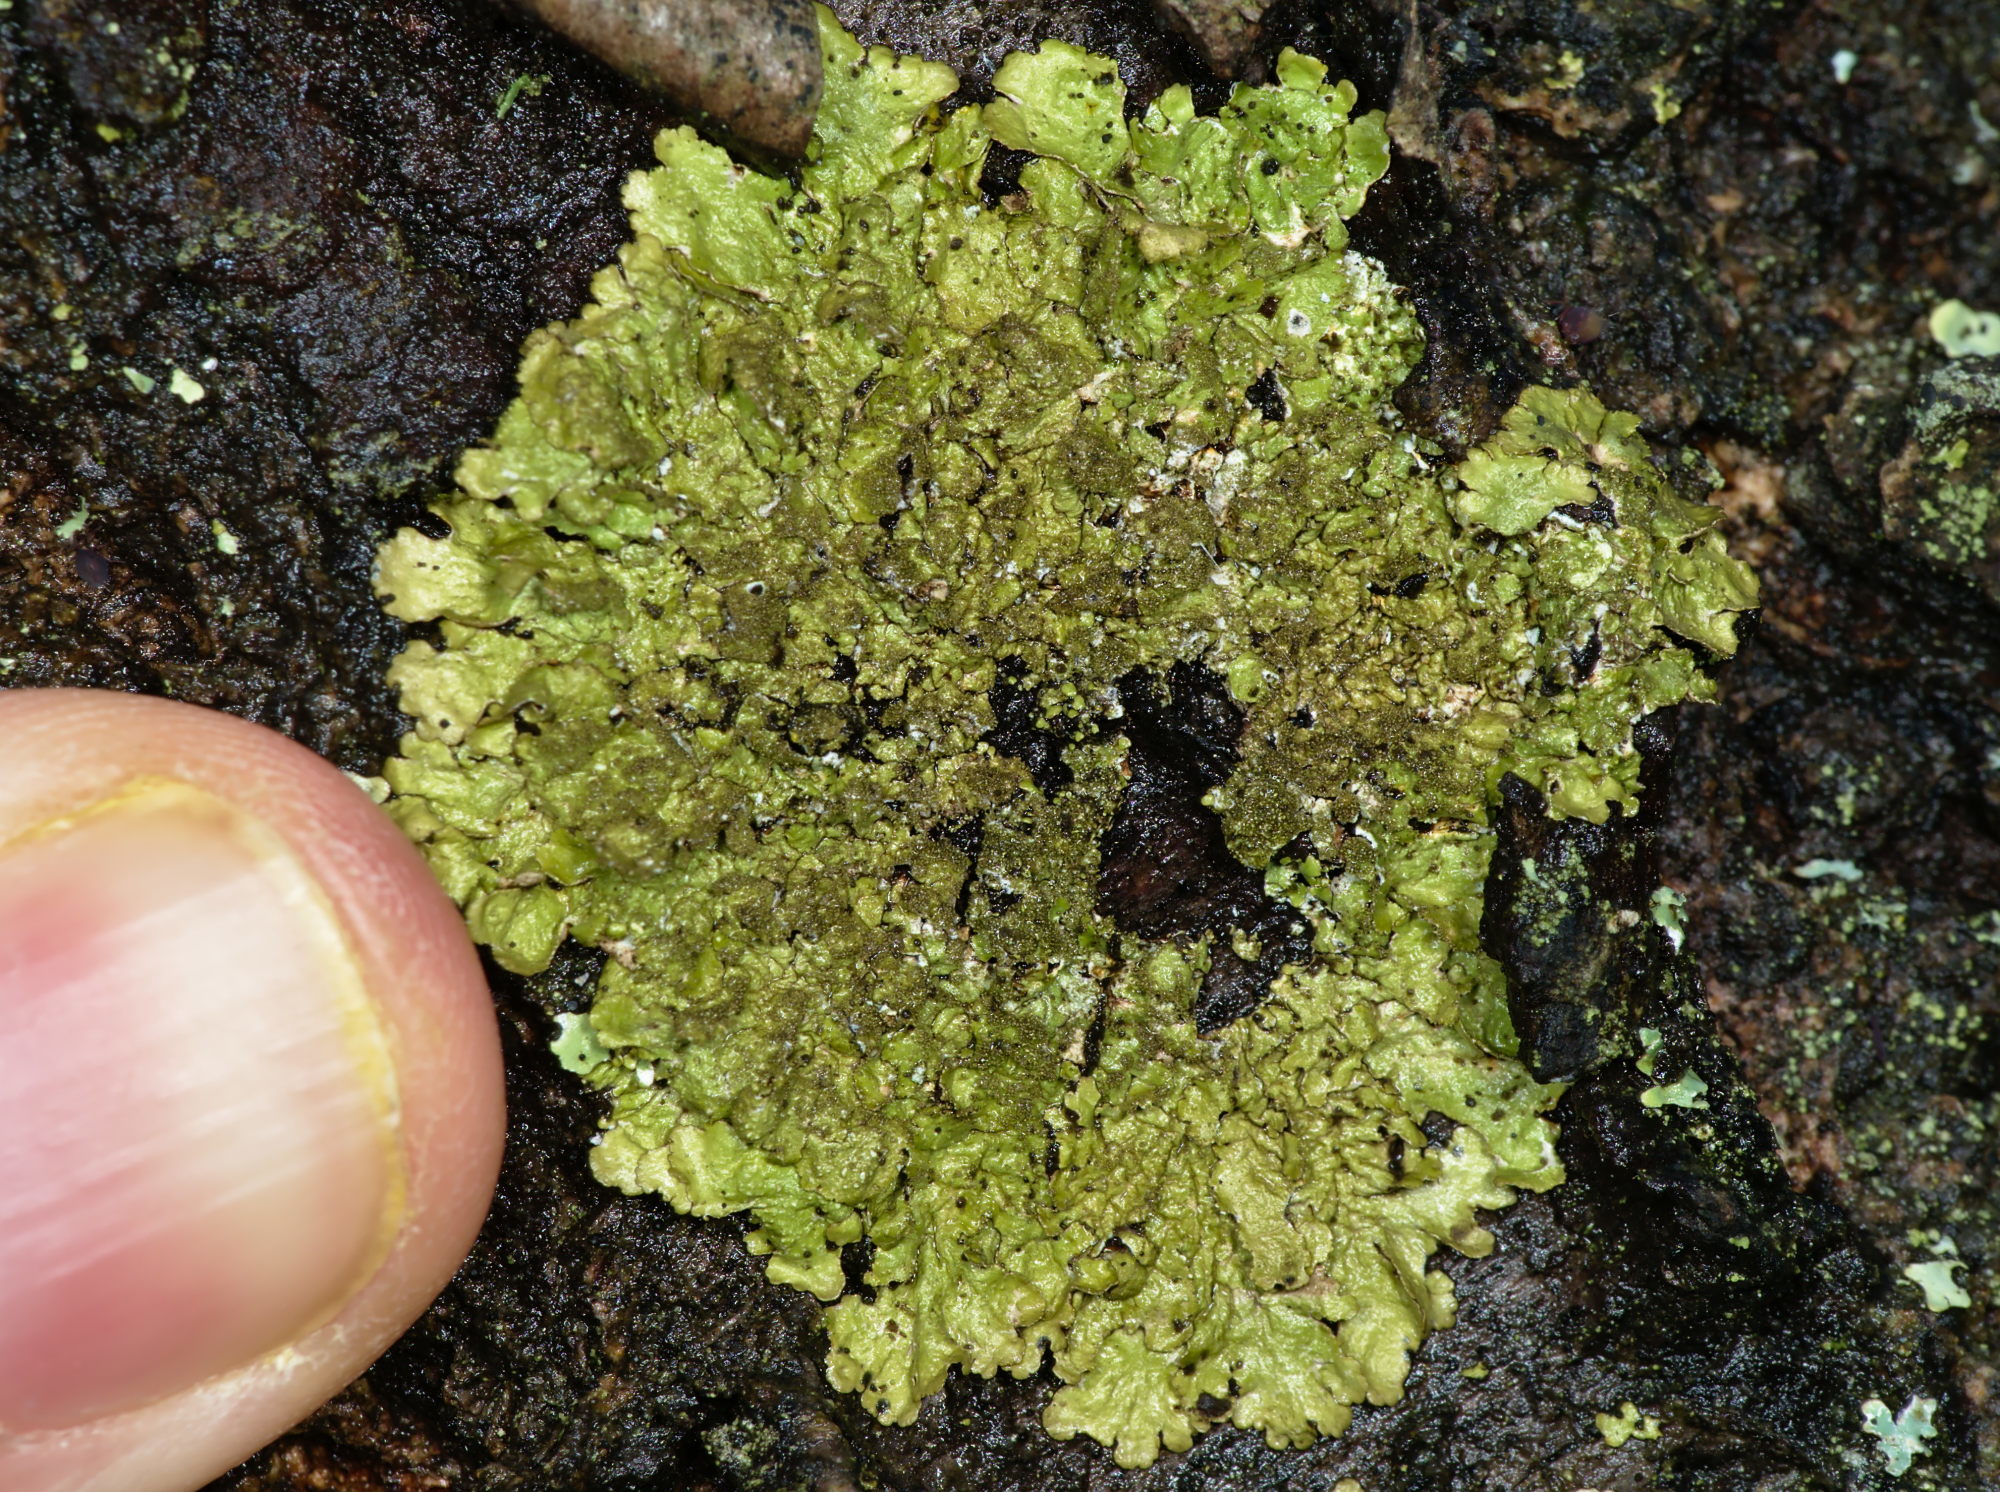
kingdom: Fungi
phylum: Ascomycota
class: Lecanoromycetes
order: Lecanorales
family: Parmeliaceae
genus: Melanelixia
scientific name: Melanelixia subaurifera
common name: Abraded camouflage lichen
